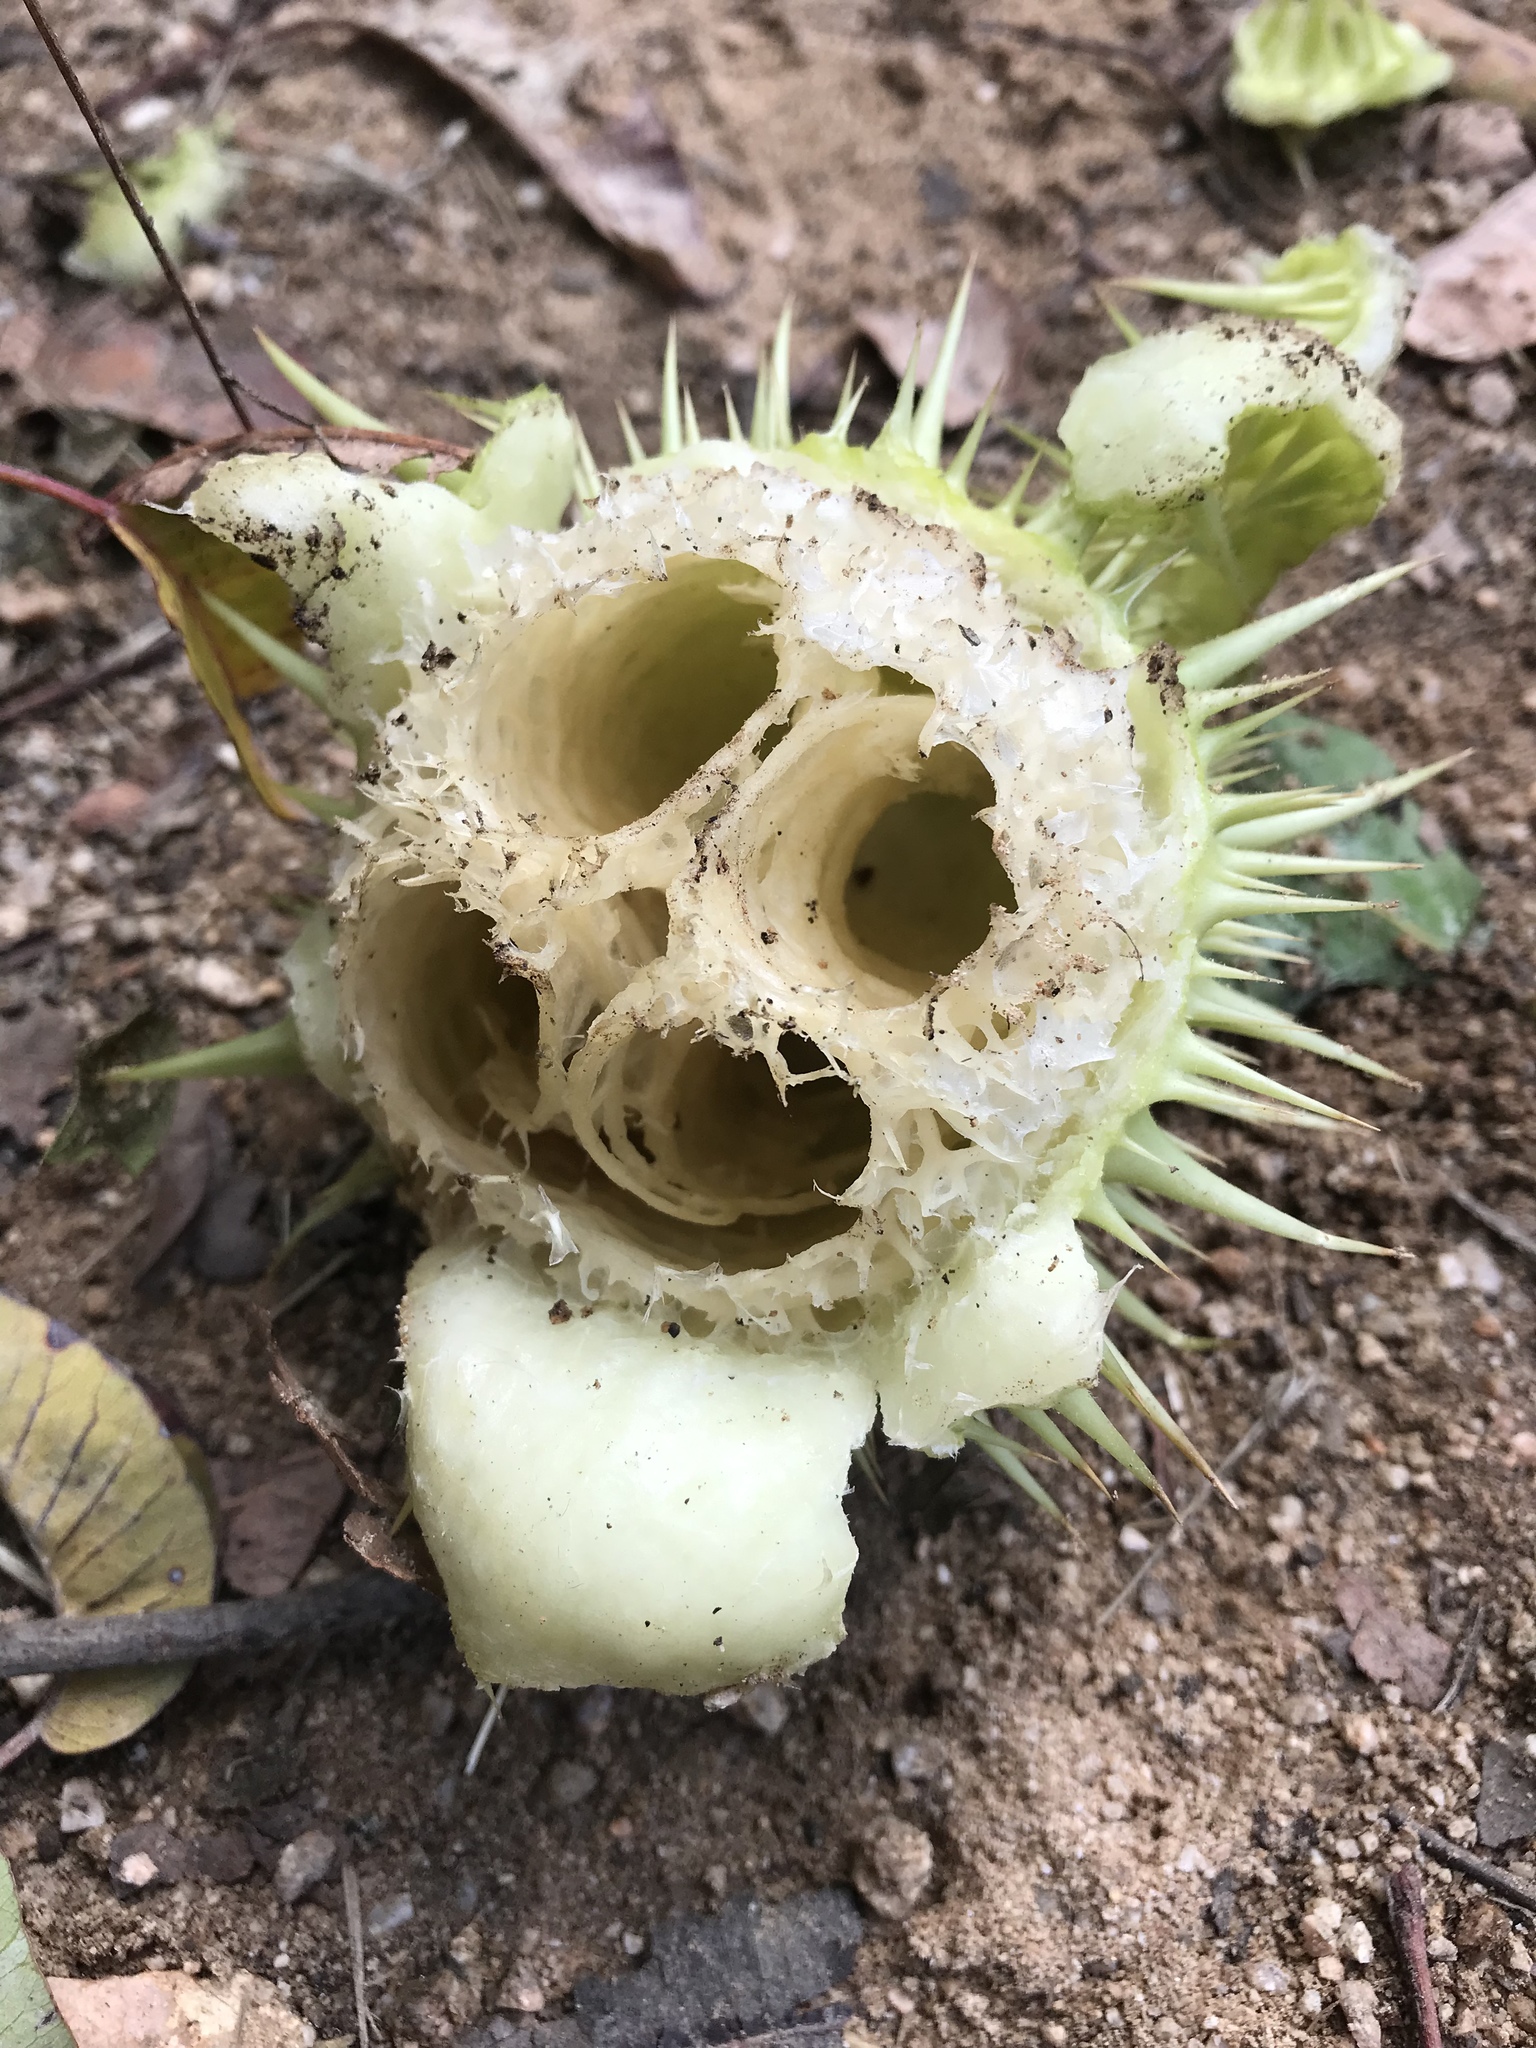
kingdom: Plantae
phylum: Tracheophyta
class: Magnoliopsida
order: Cucurbitales
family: Cucurbitaceae
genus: Marah
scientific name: Marah macrocarpa
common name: Cucamonga manroot
